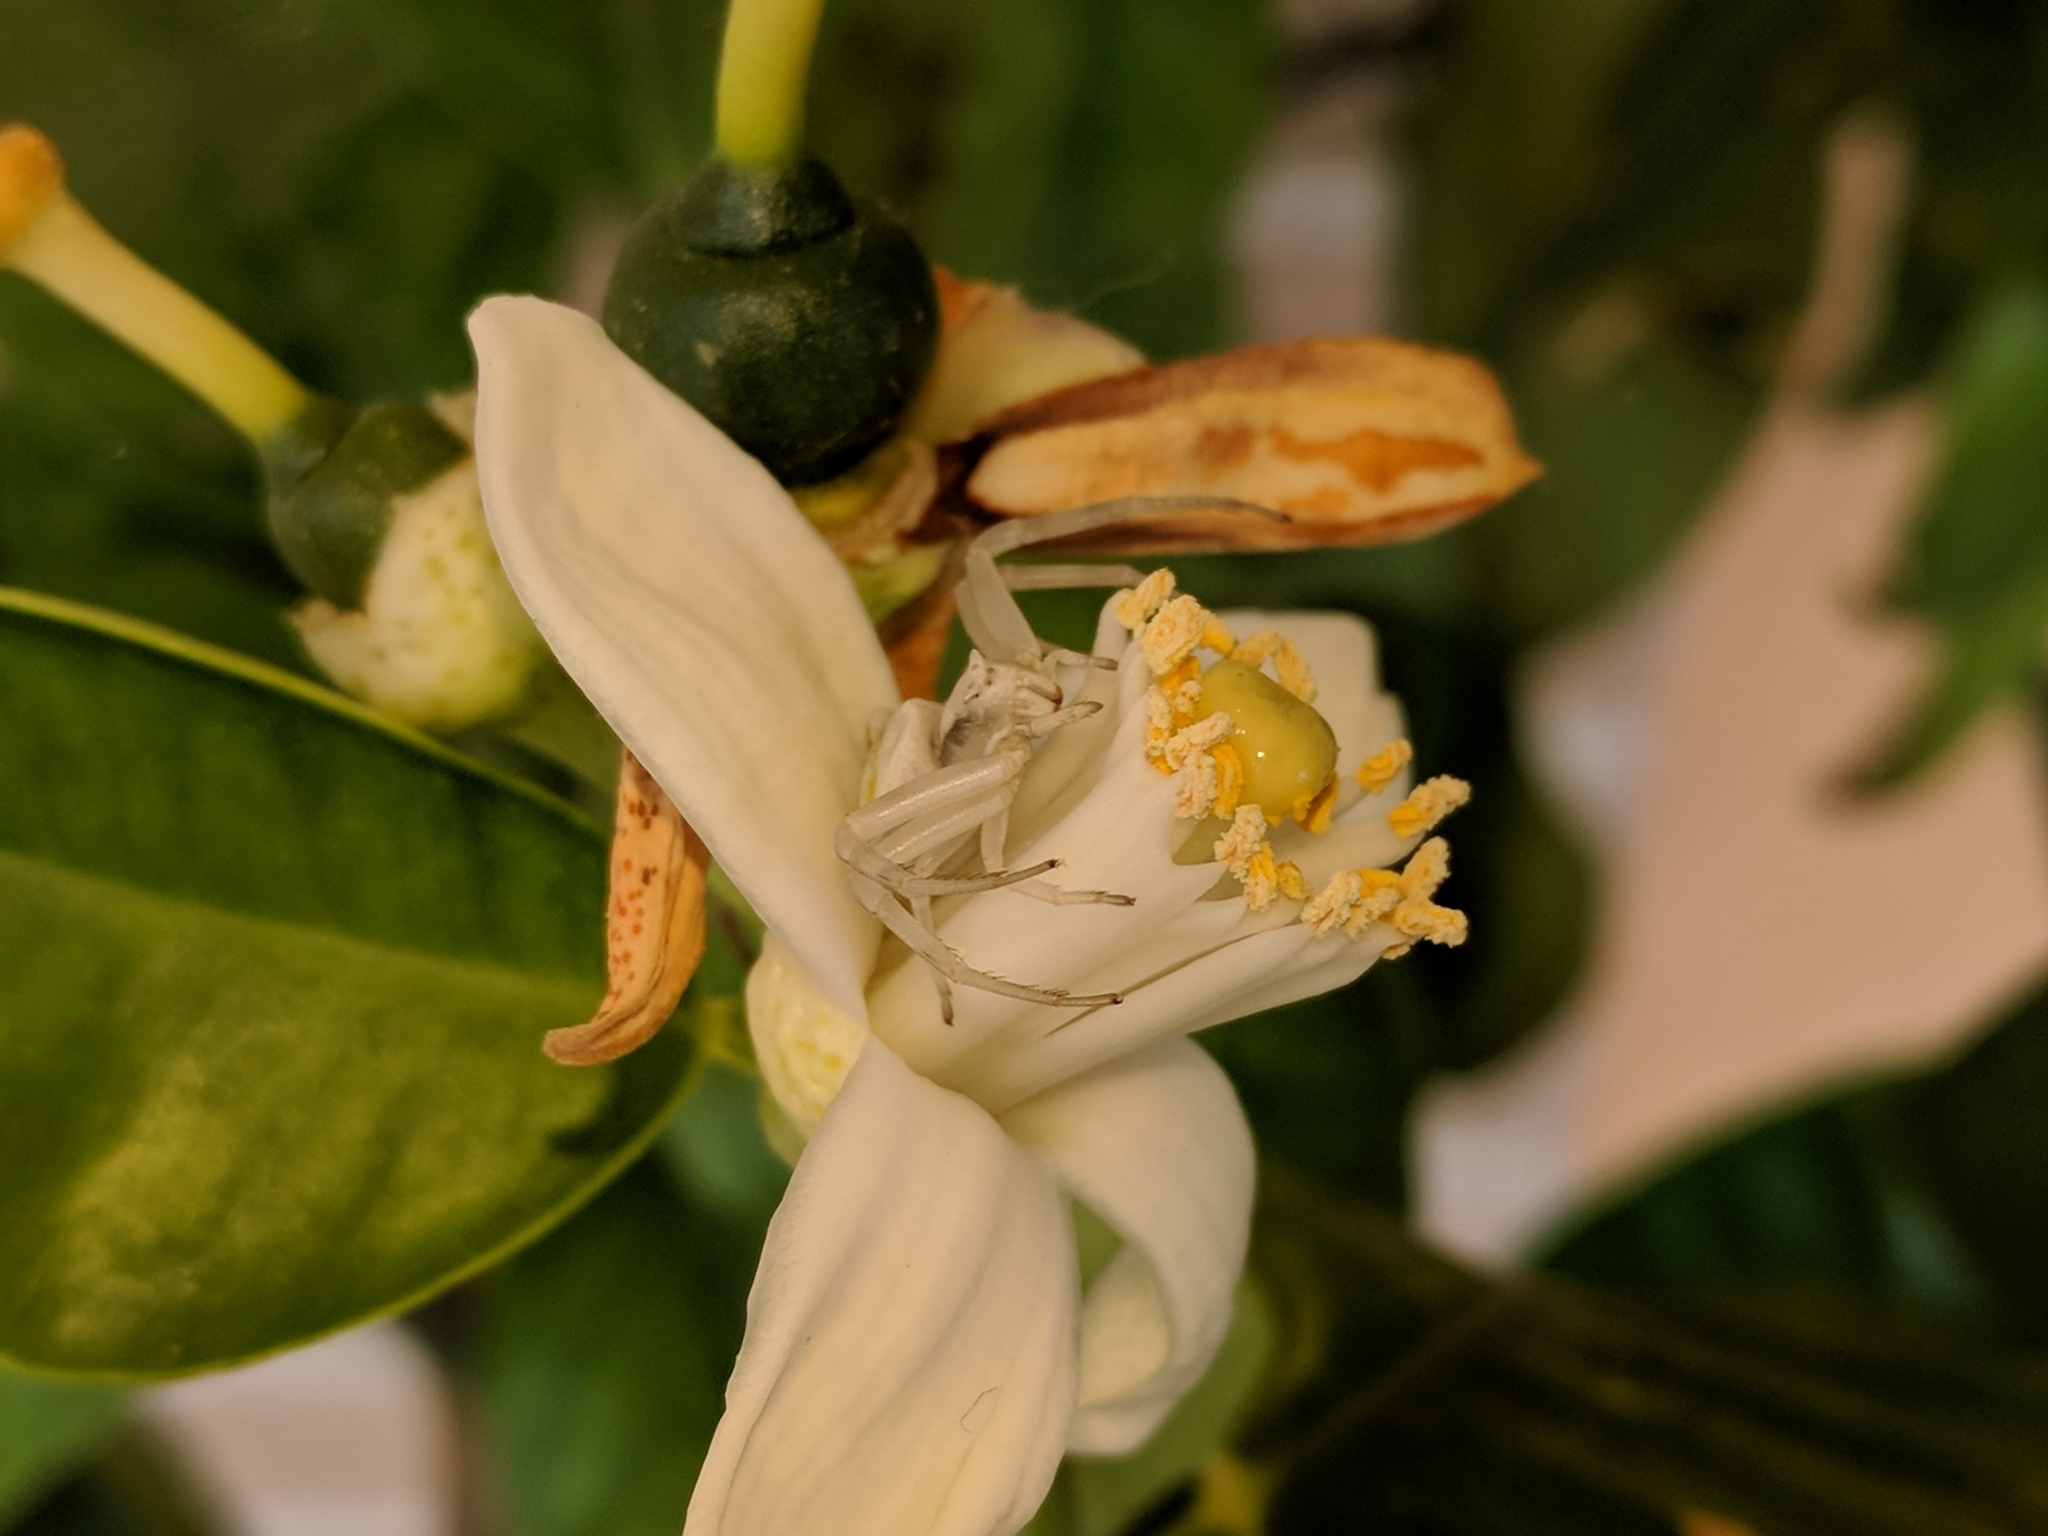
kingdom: Animalia
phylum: Arthropoda
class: Arachnida
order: Araneae
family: Thomisidae
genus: Thomisus
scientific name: Thomisus onustus
